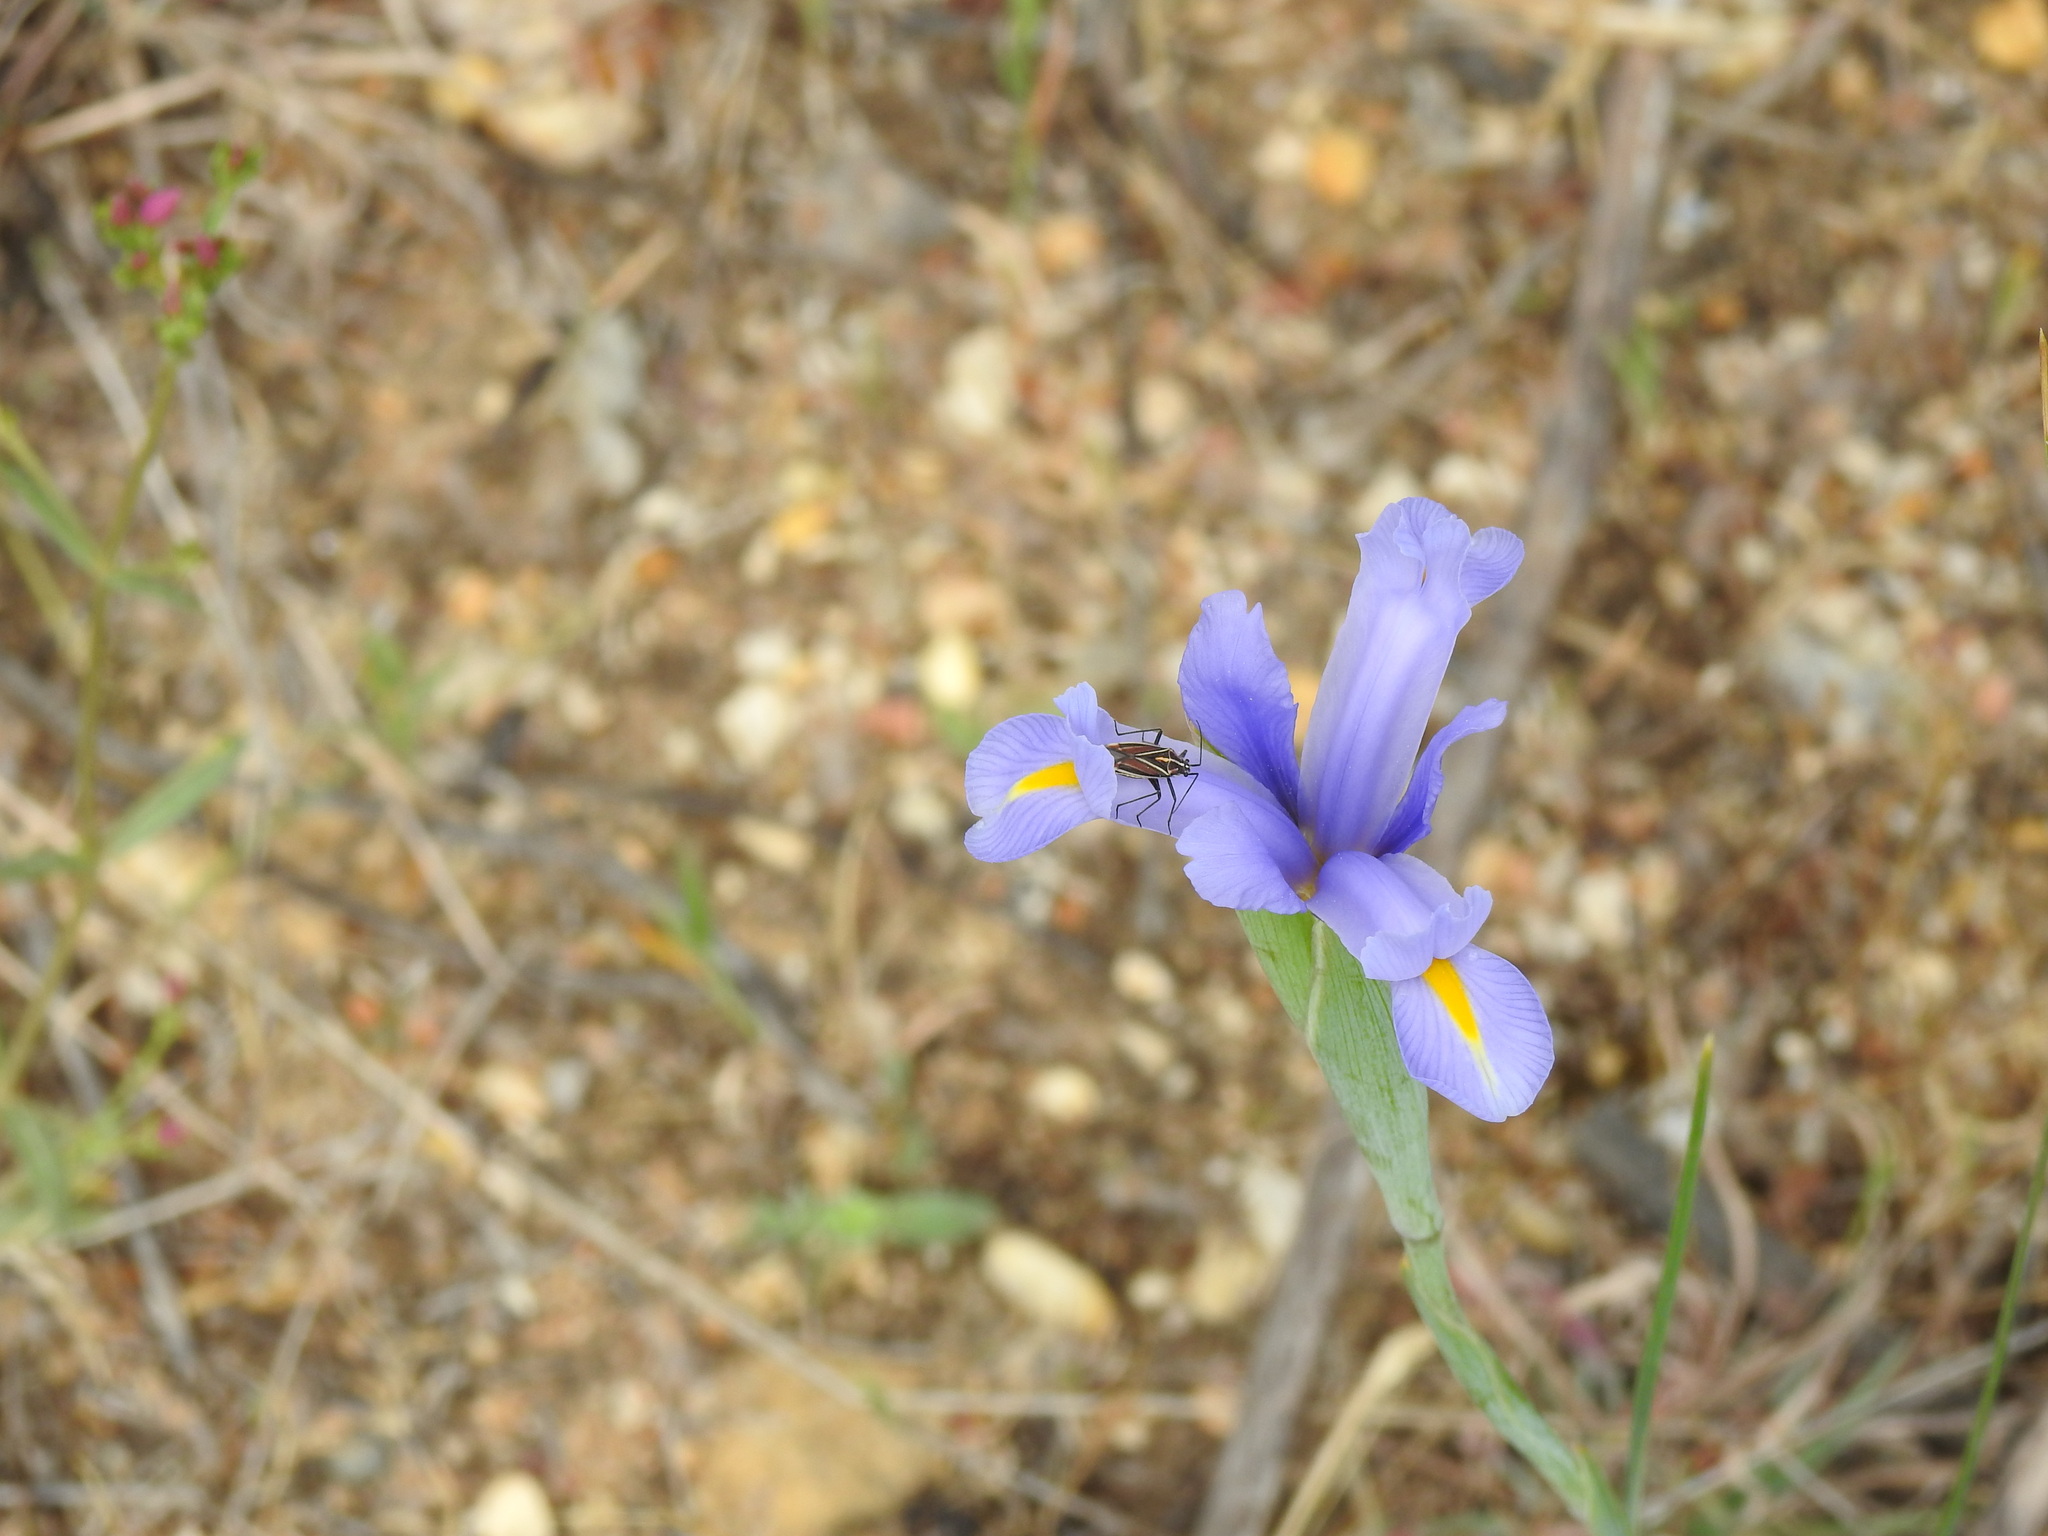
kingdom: Animalia
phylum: Arthropoda
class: Insecta
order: Hemiptera
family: Miridae
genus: Horistus
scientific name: Horistus orientalis
